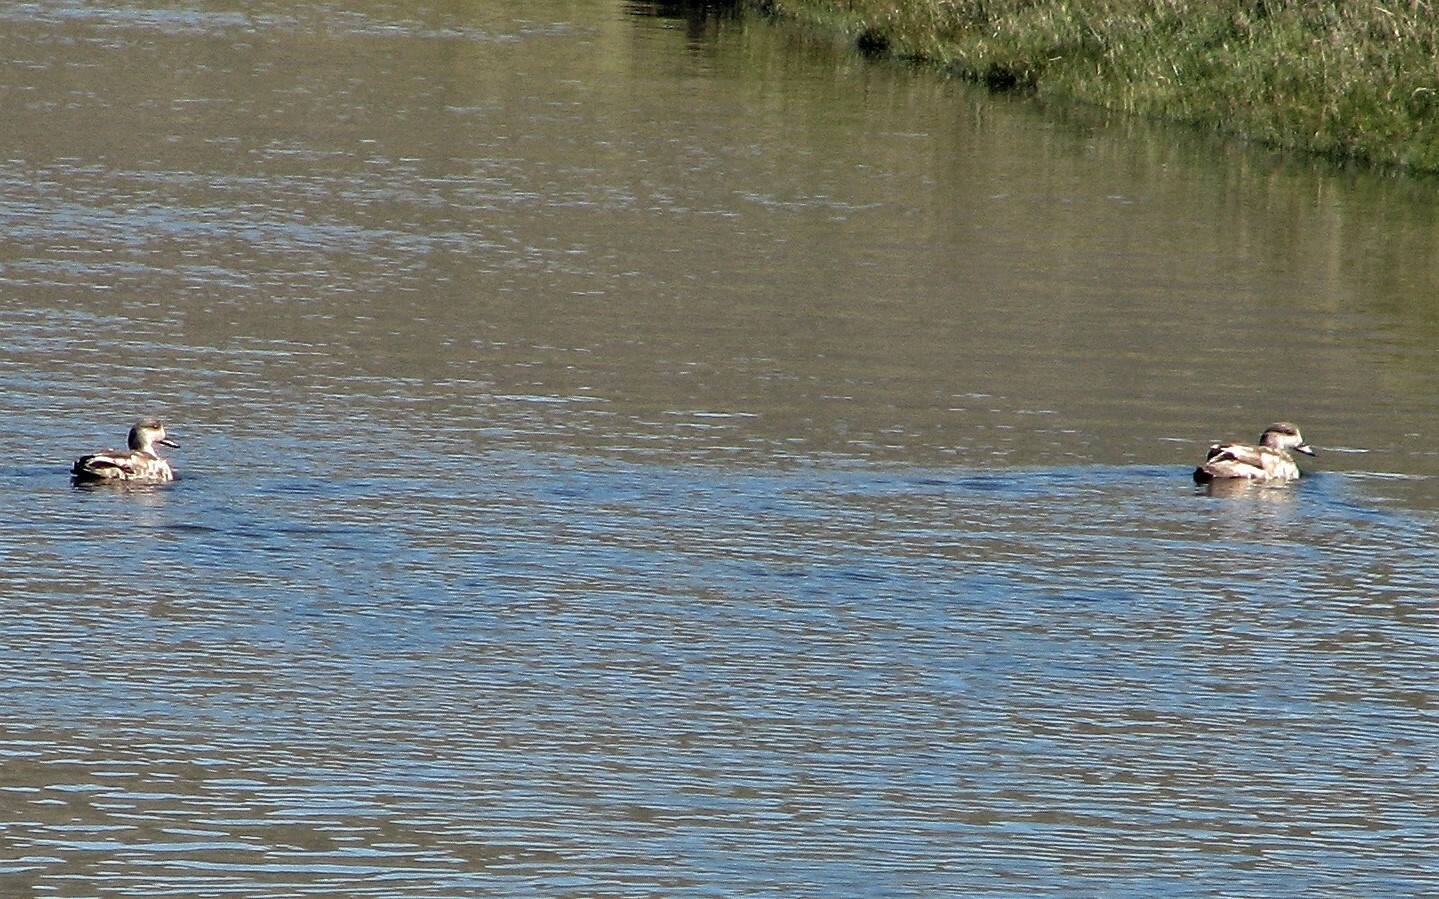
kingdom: Animalia
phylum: Chordata
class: Aves
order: Anseriformes
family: Anatidae
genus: Lophonetta
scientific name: Lophonetta specularioides
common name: Crested duck
